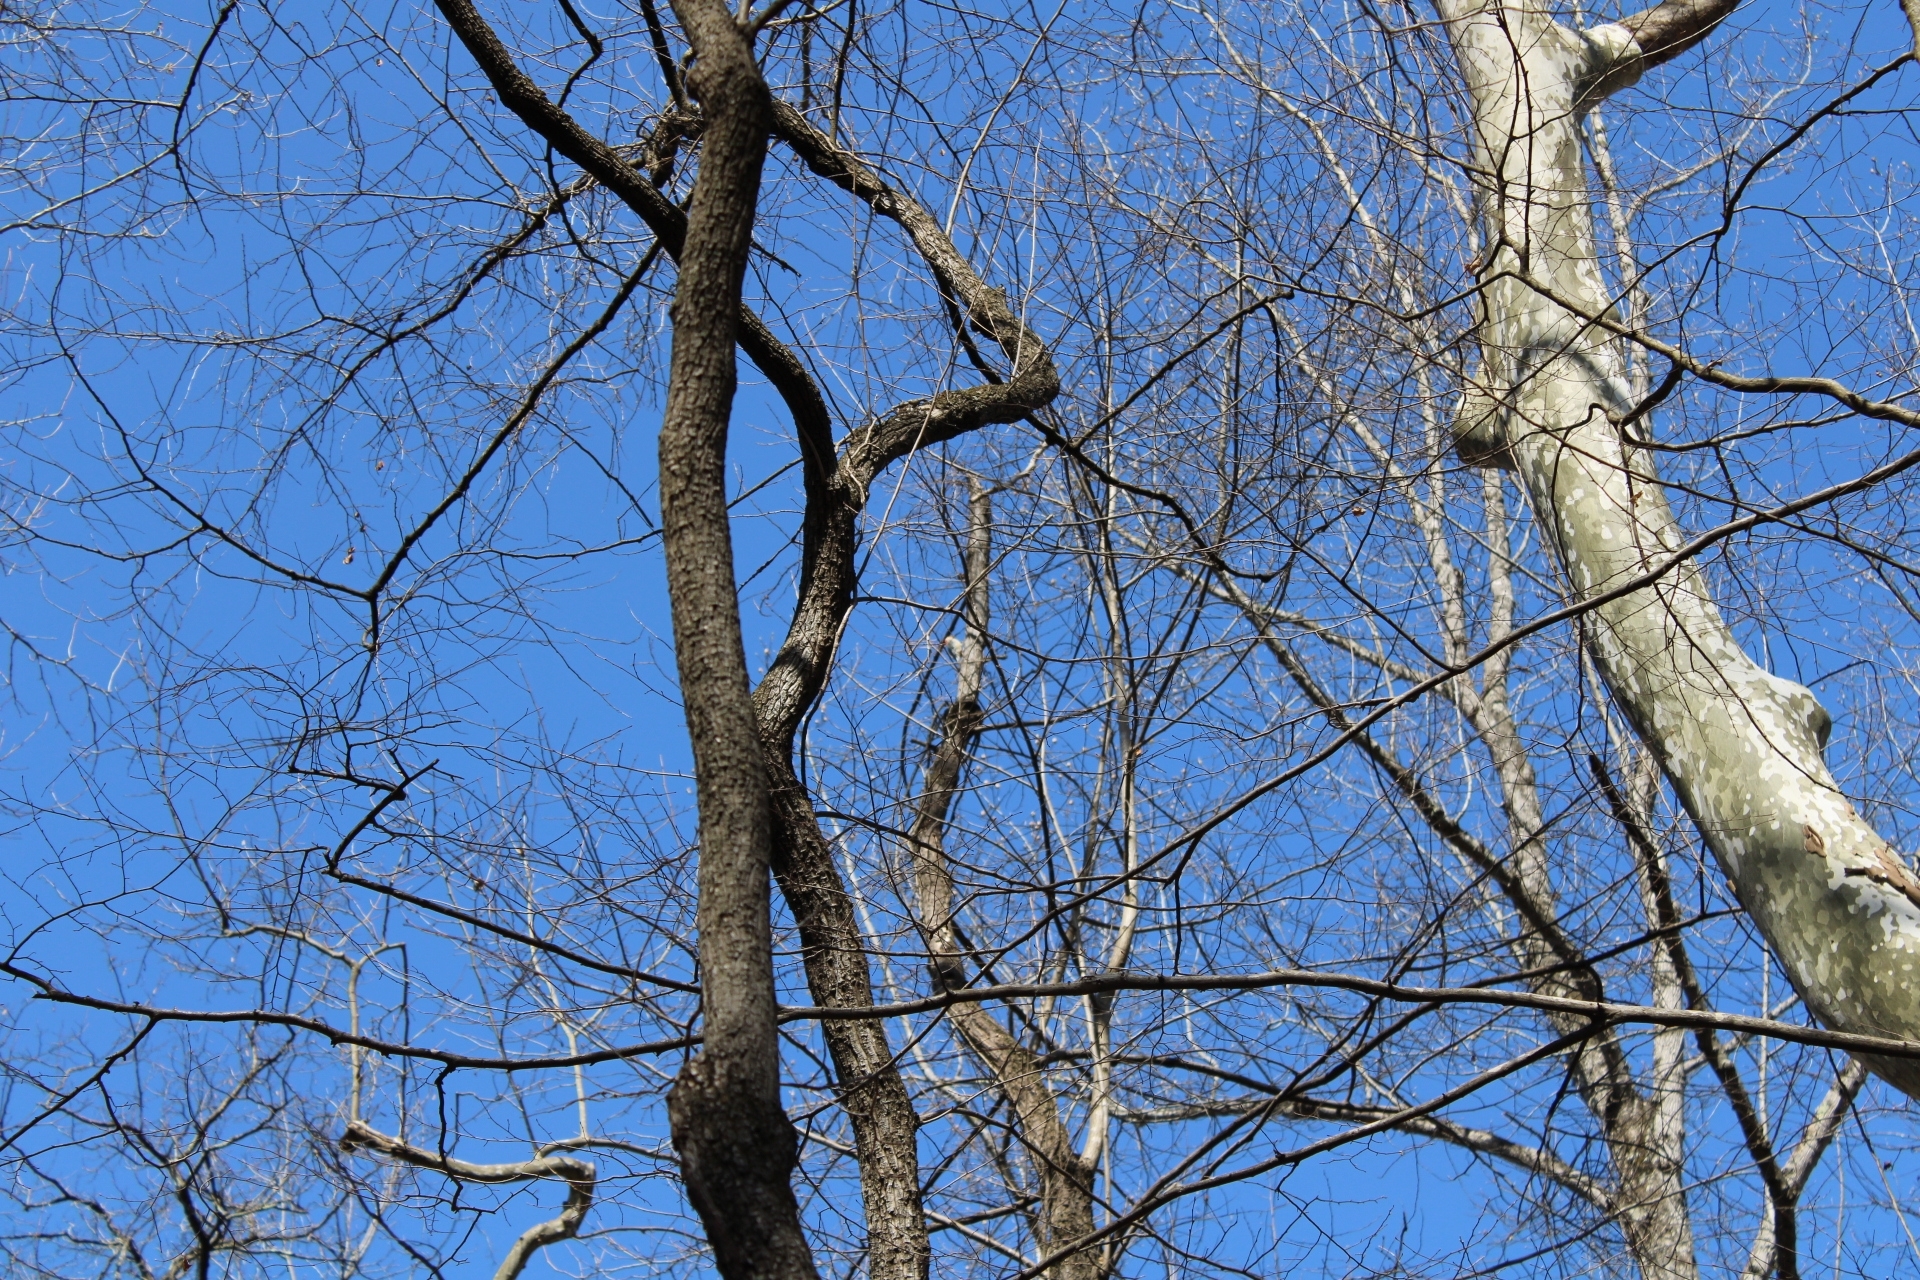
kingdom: Animalia
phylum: Chordata
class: Aves
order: Piciformes
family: Picidae
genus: Melanerpes
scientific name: Melanerpes carolinus
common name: Red-bellied woodpecker
